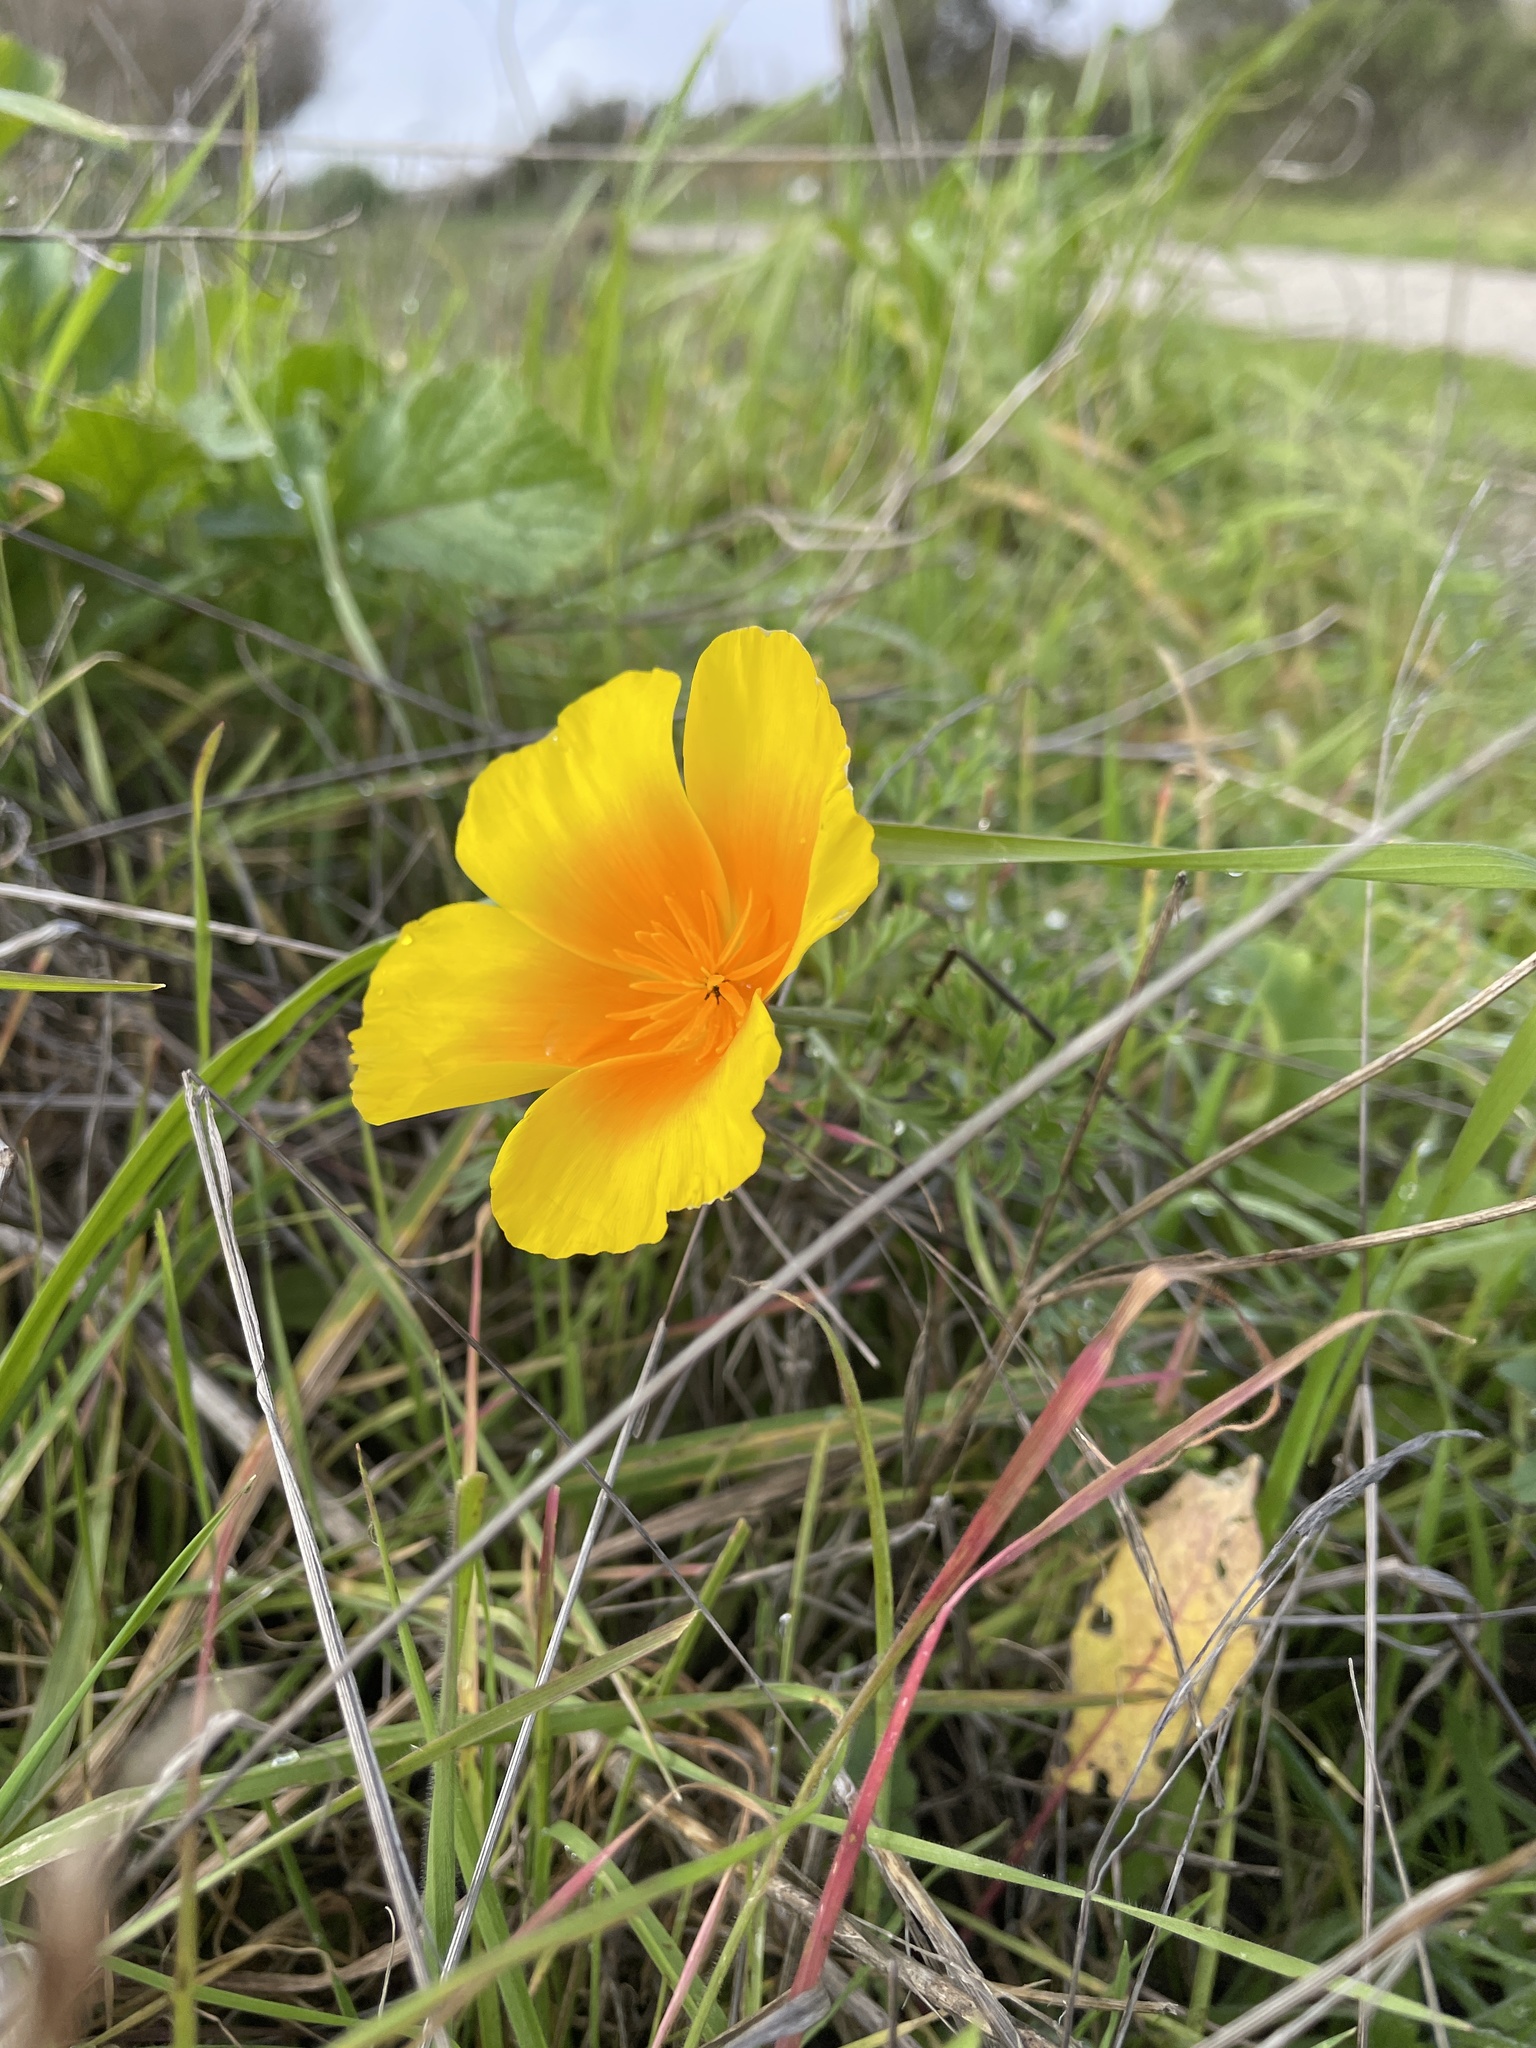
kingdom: Plantae
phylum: Tracheophyta
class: Magnoliopsida
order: Ranunculales
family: Papaveraceae
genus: Eschscholzia
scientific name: Eschscholzia californica
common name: California poppy
